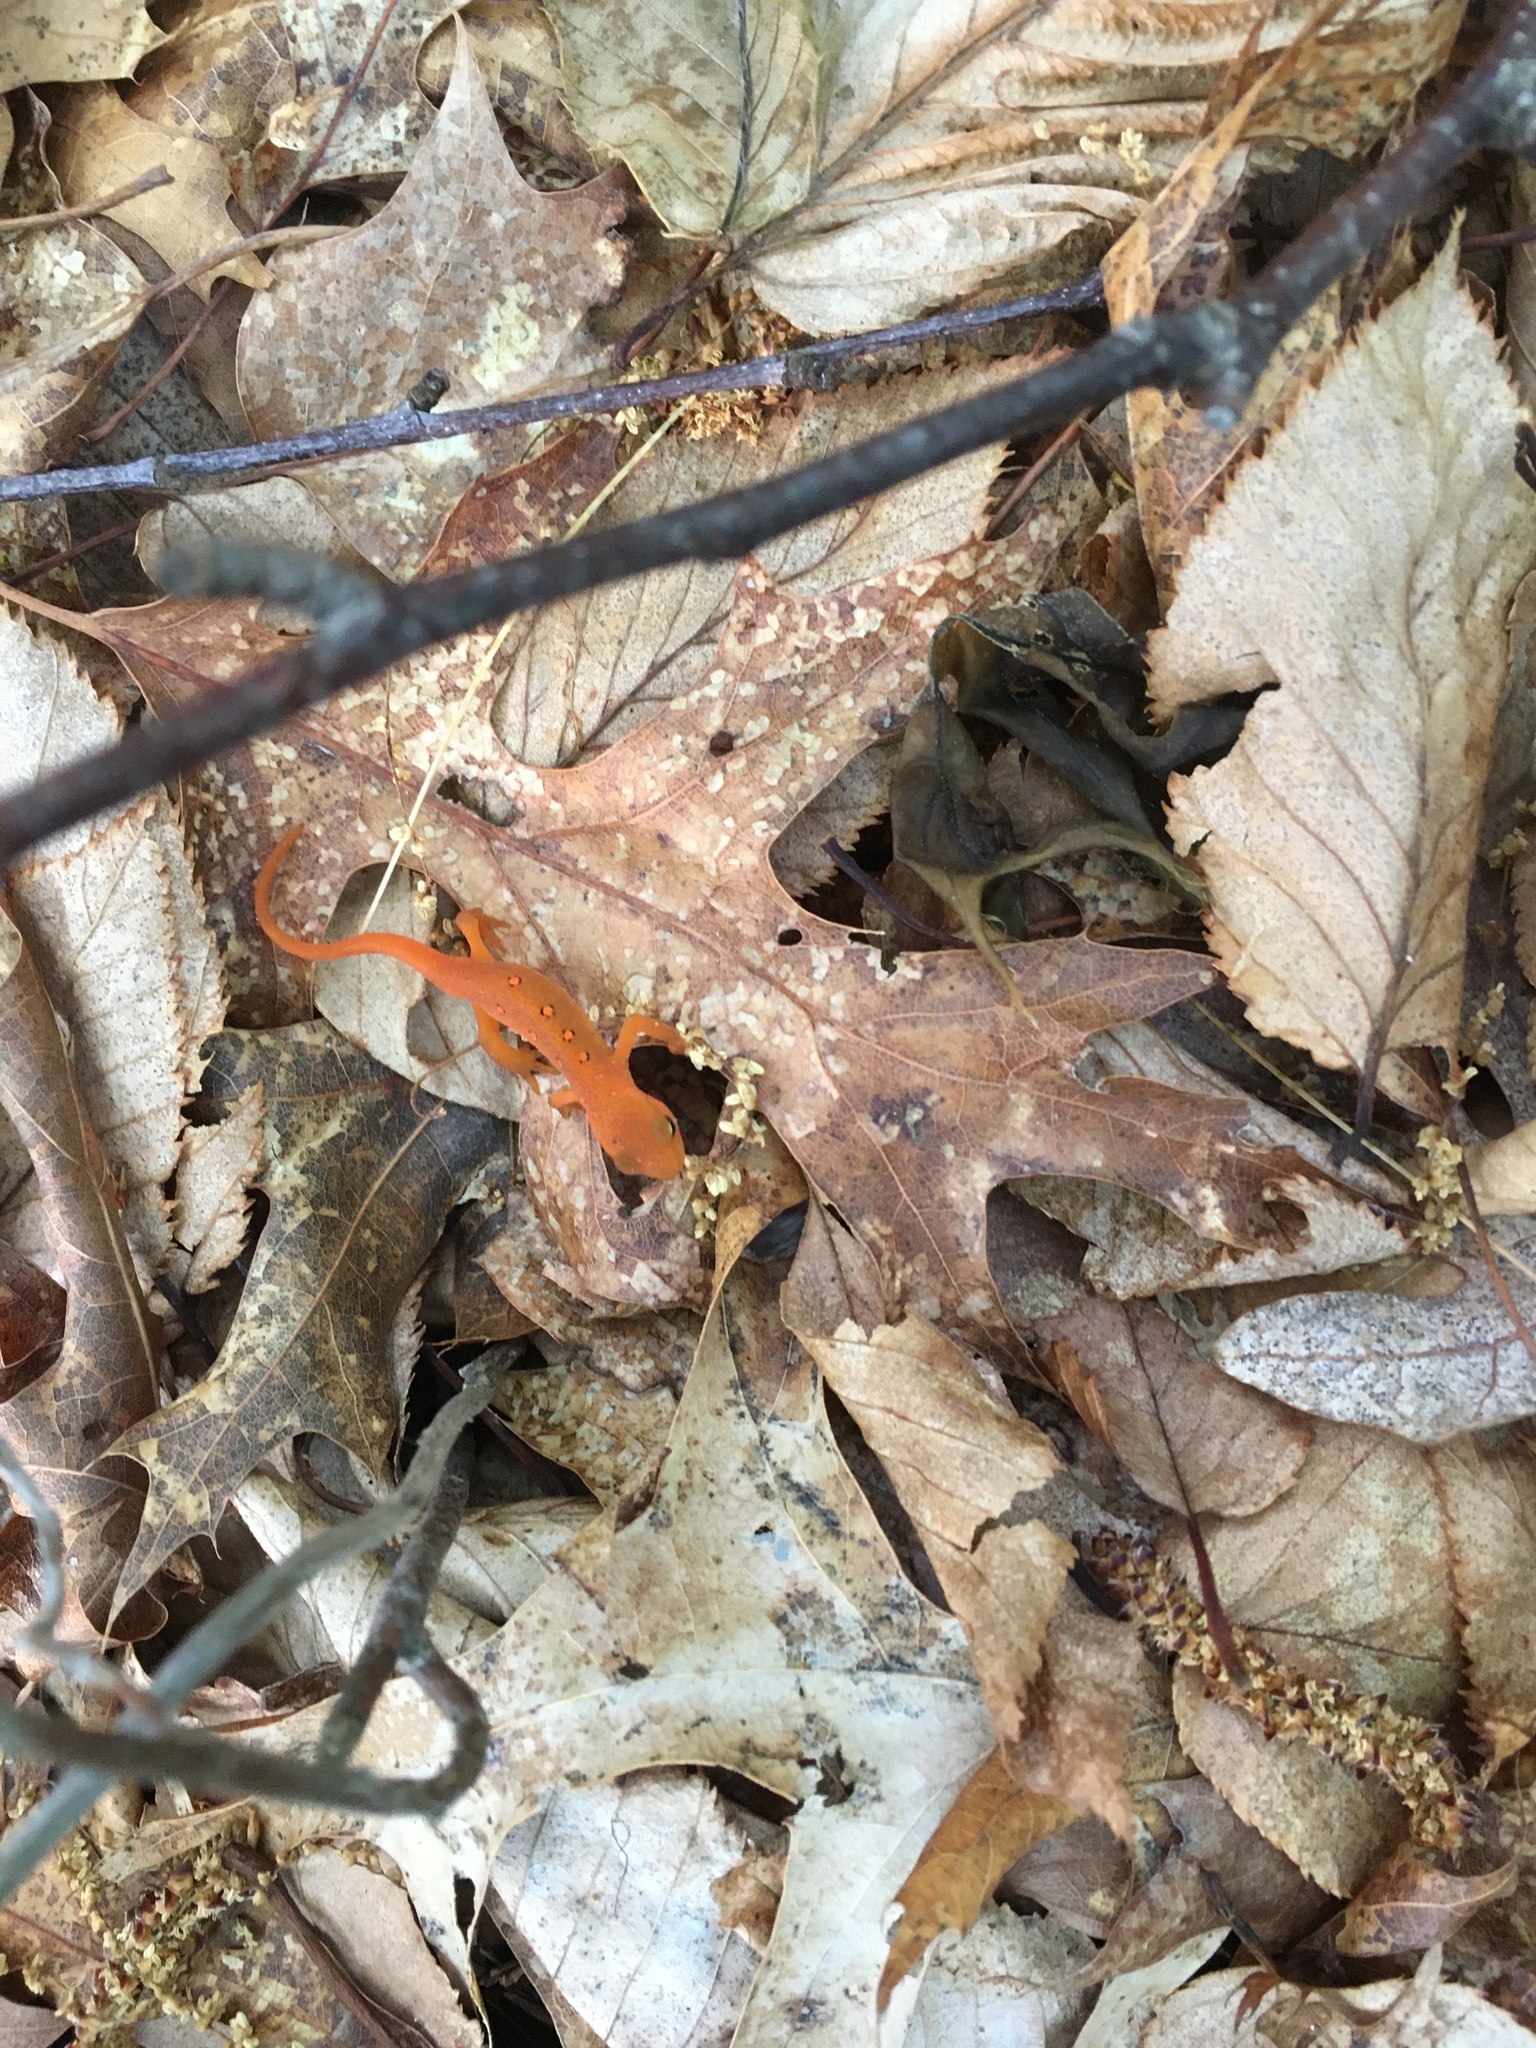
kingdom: Animalia
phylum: Chordata
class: Amphibia
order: Caudata
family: Salamandridae
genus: Notophthalmus
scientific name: Notophthalmus viridescens
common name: Eastern newt
